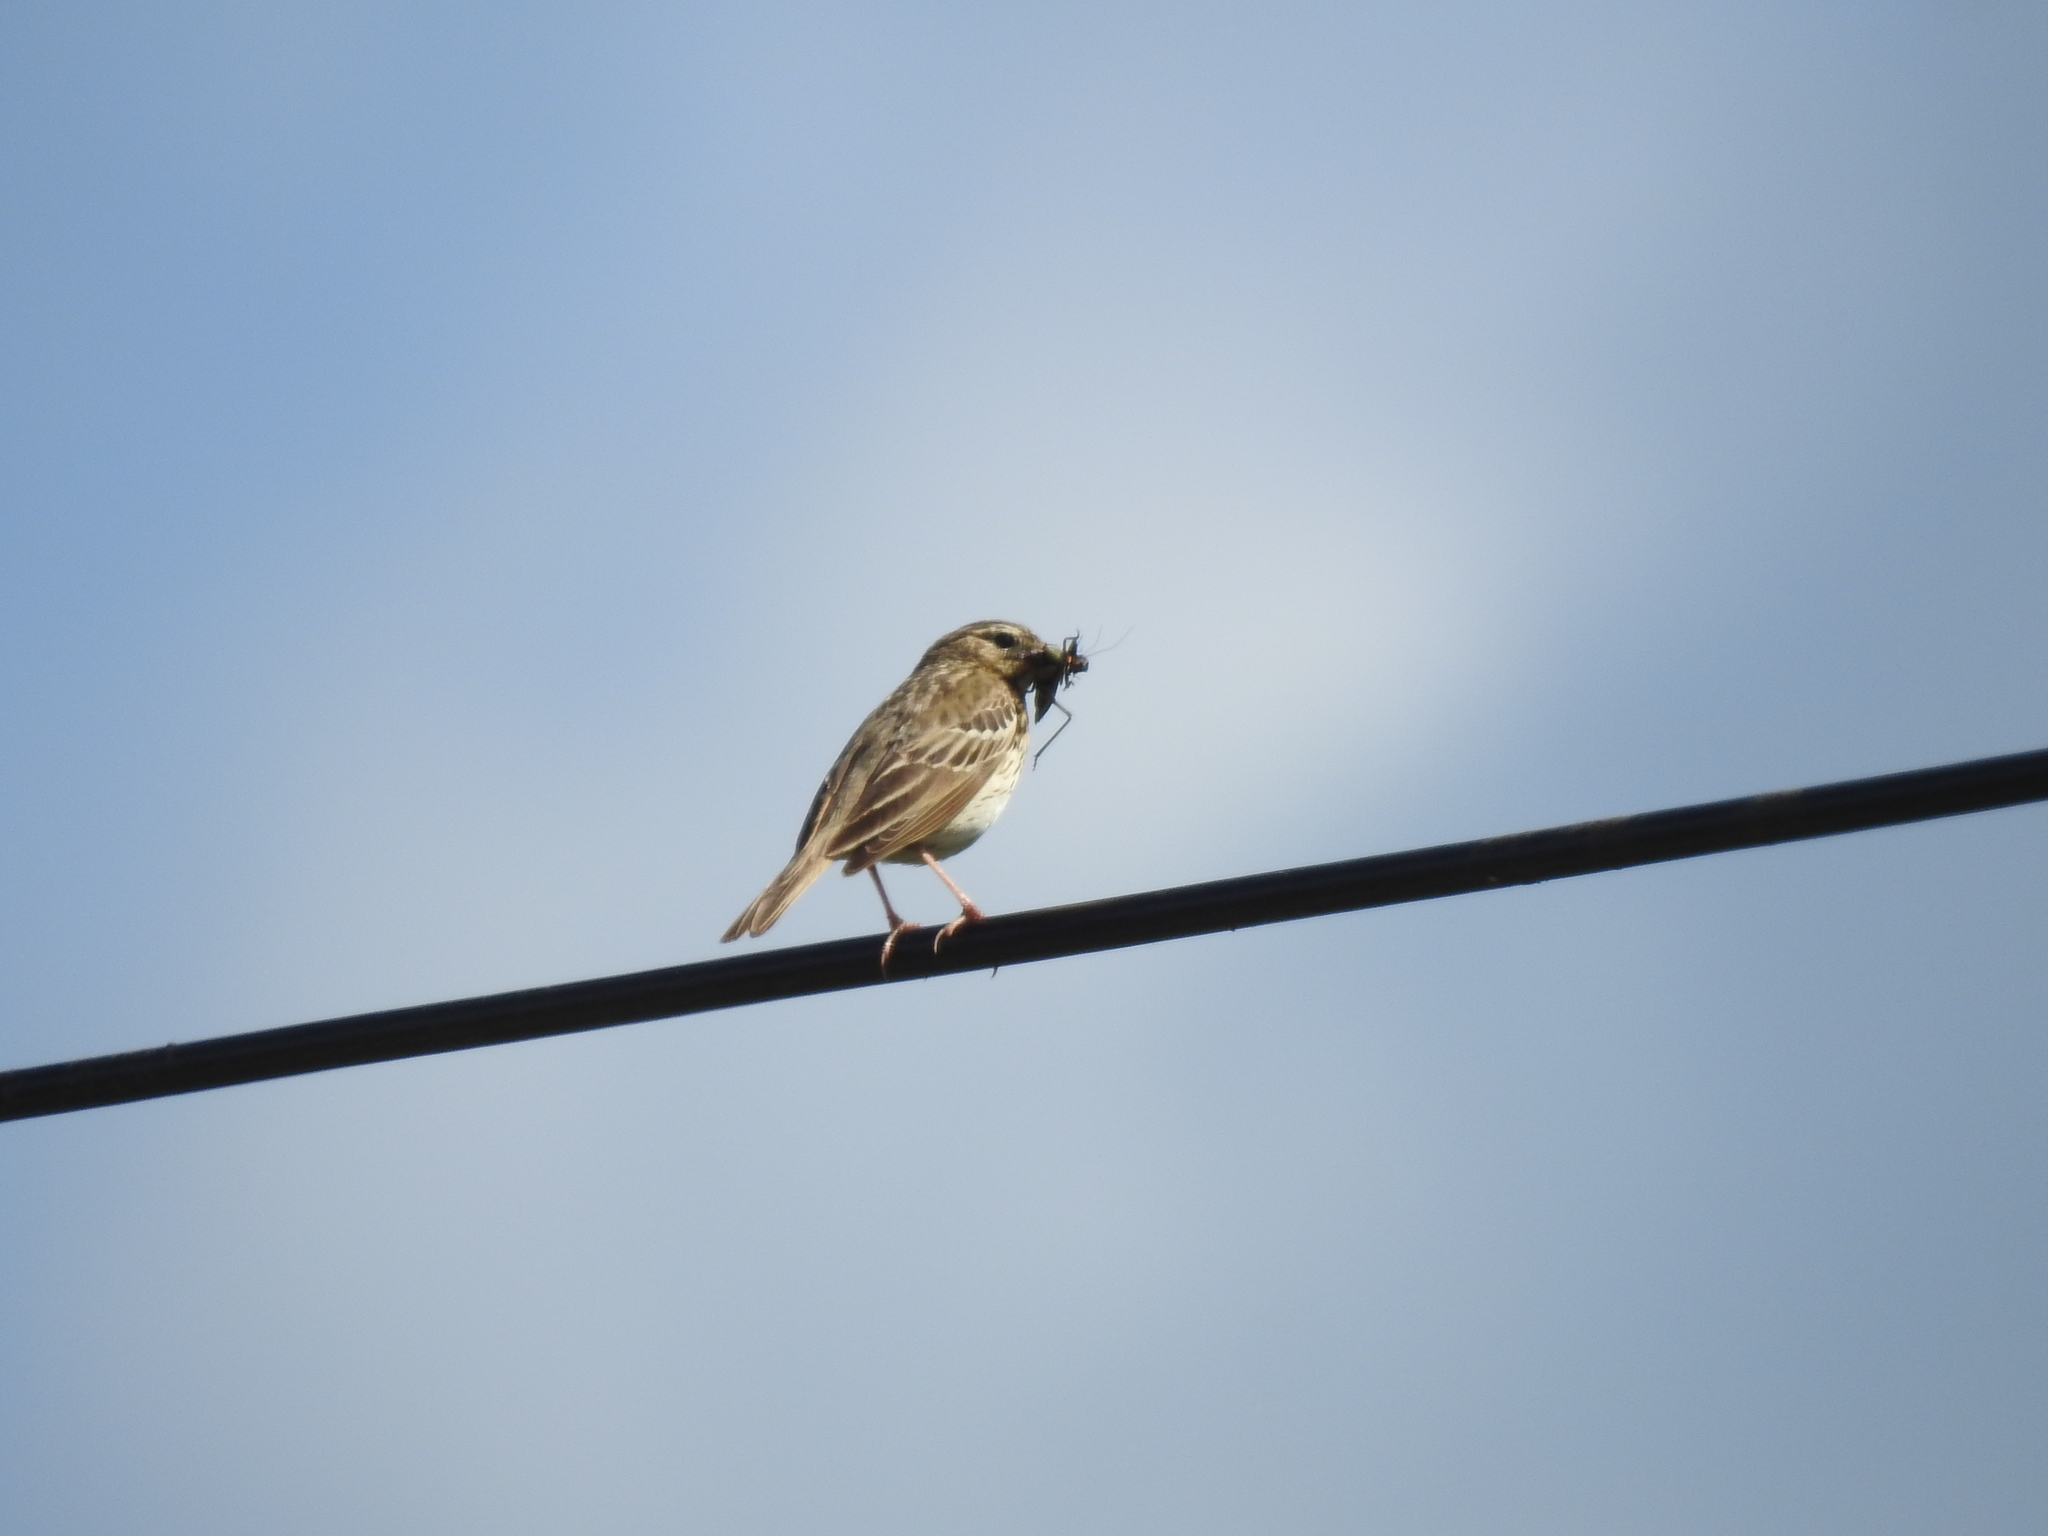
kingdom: Animalia
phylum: Chordata
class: Aves
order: Passeriformes
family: Motacillidae
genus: Anthus
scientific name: Anthus trivialis
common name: Tree pipit
